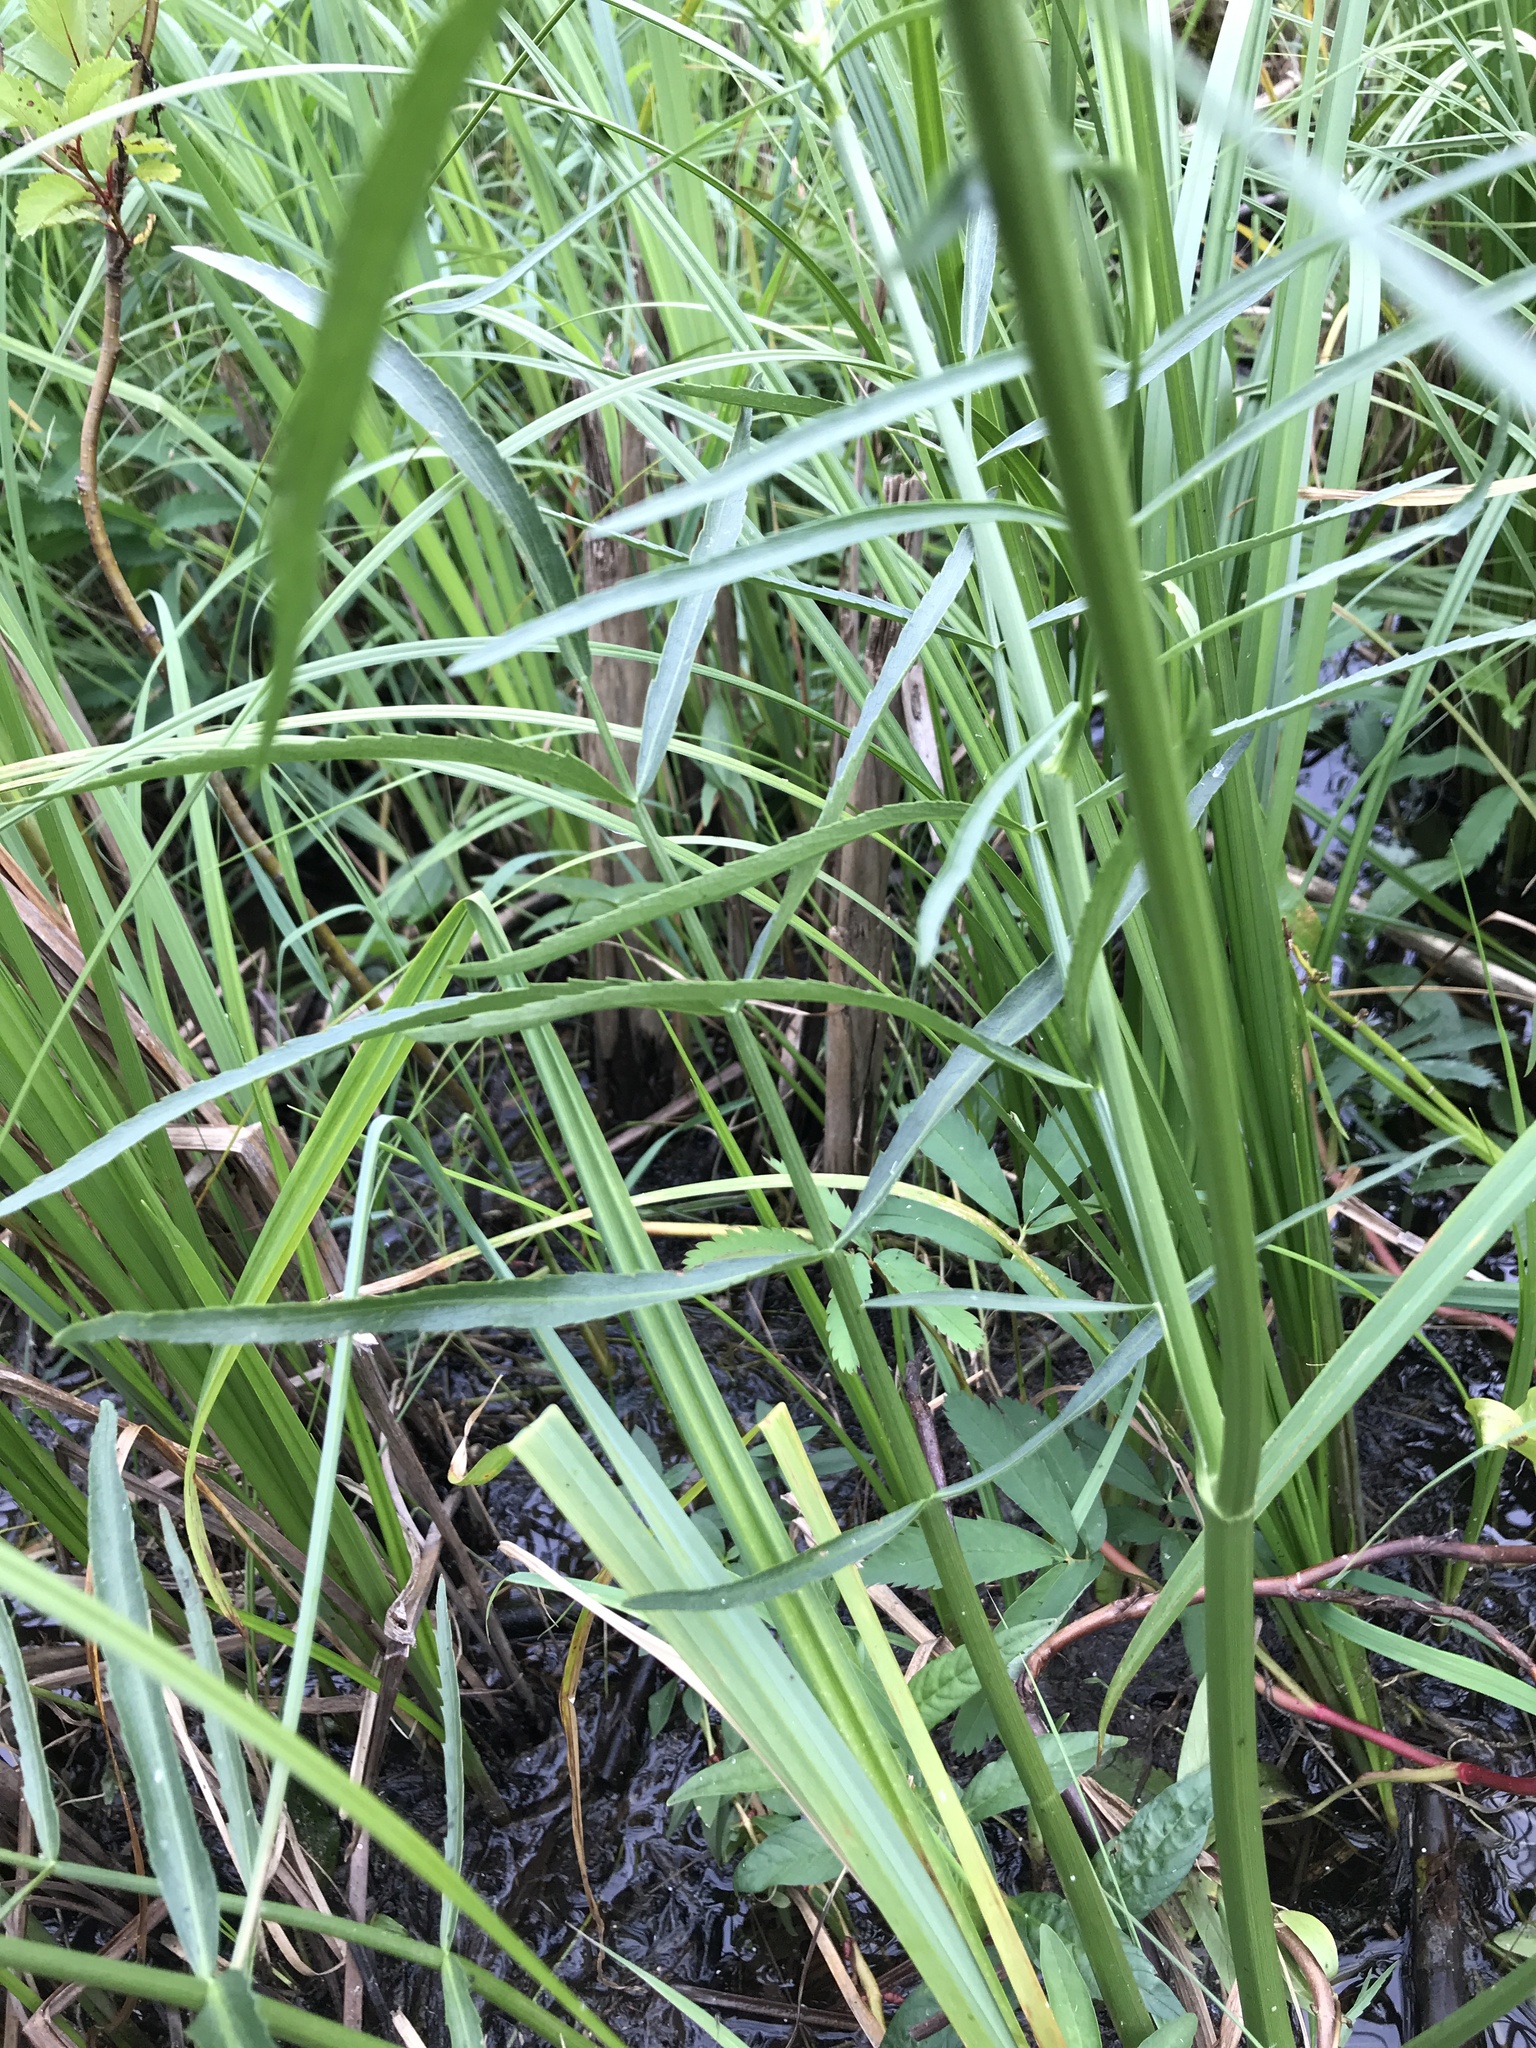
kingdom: Plantae
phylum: Tracheophyta
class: Magnoliopsida
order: Apiales
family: Apiaceae
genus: Sium
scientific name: Sium suave
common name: Hemlock water-parsnip
